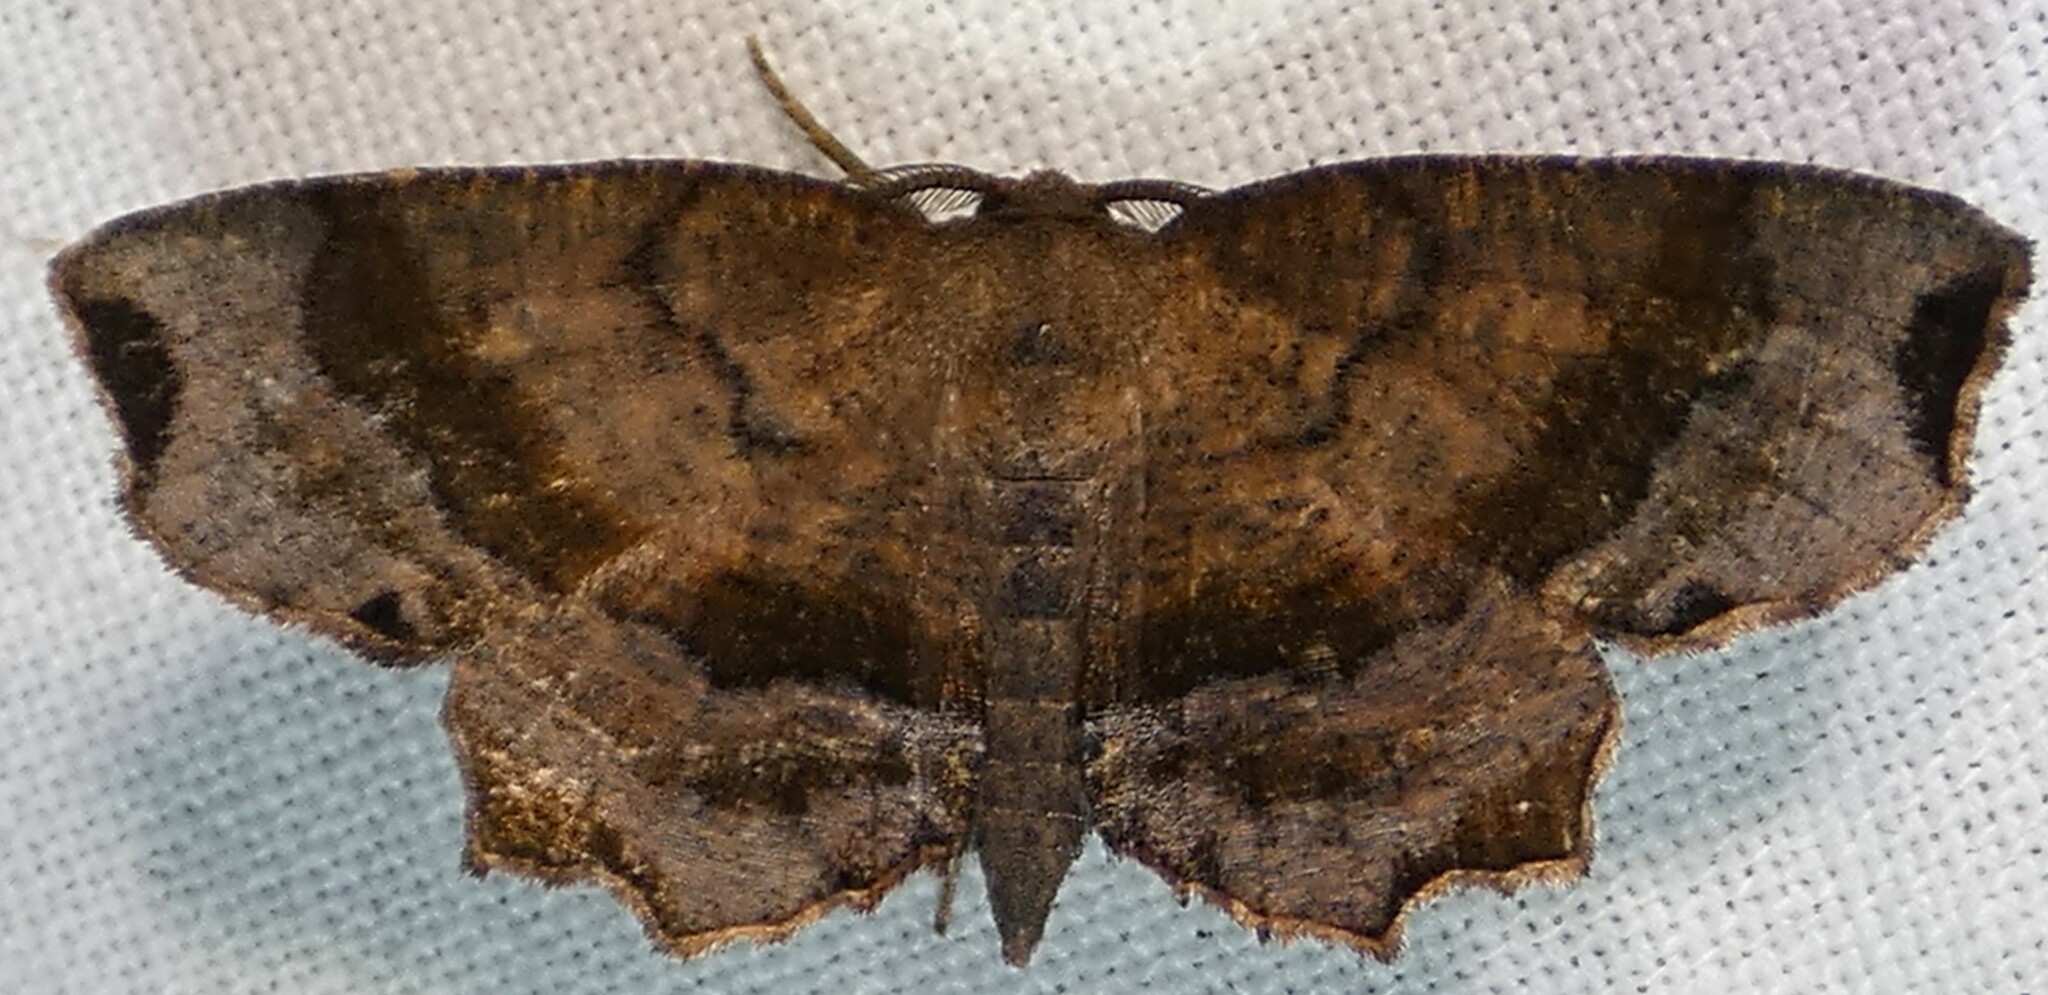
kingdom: Animalia
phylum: Arthropoda
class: Insecta
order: Lepidoptera
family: Geometridae
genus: Cepphis
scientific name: Cepphis decoloraria
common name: Dark scallop moth
